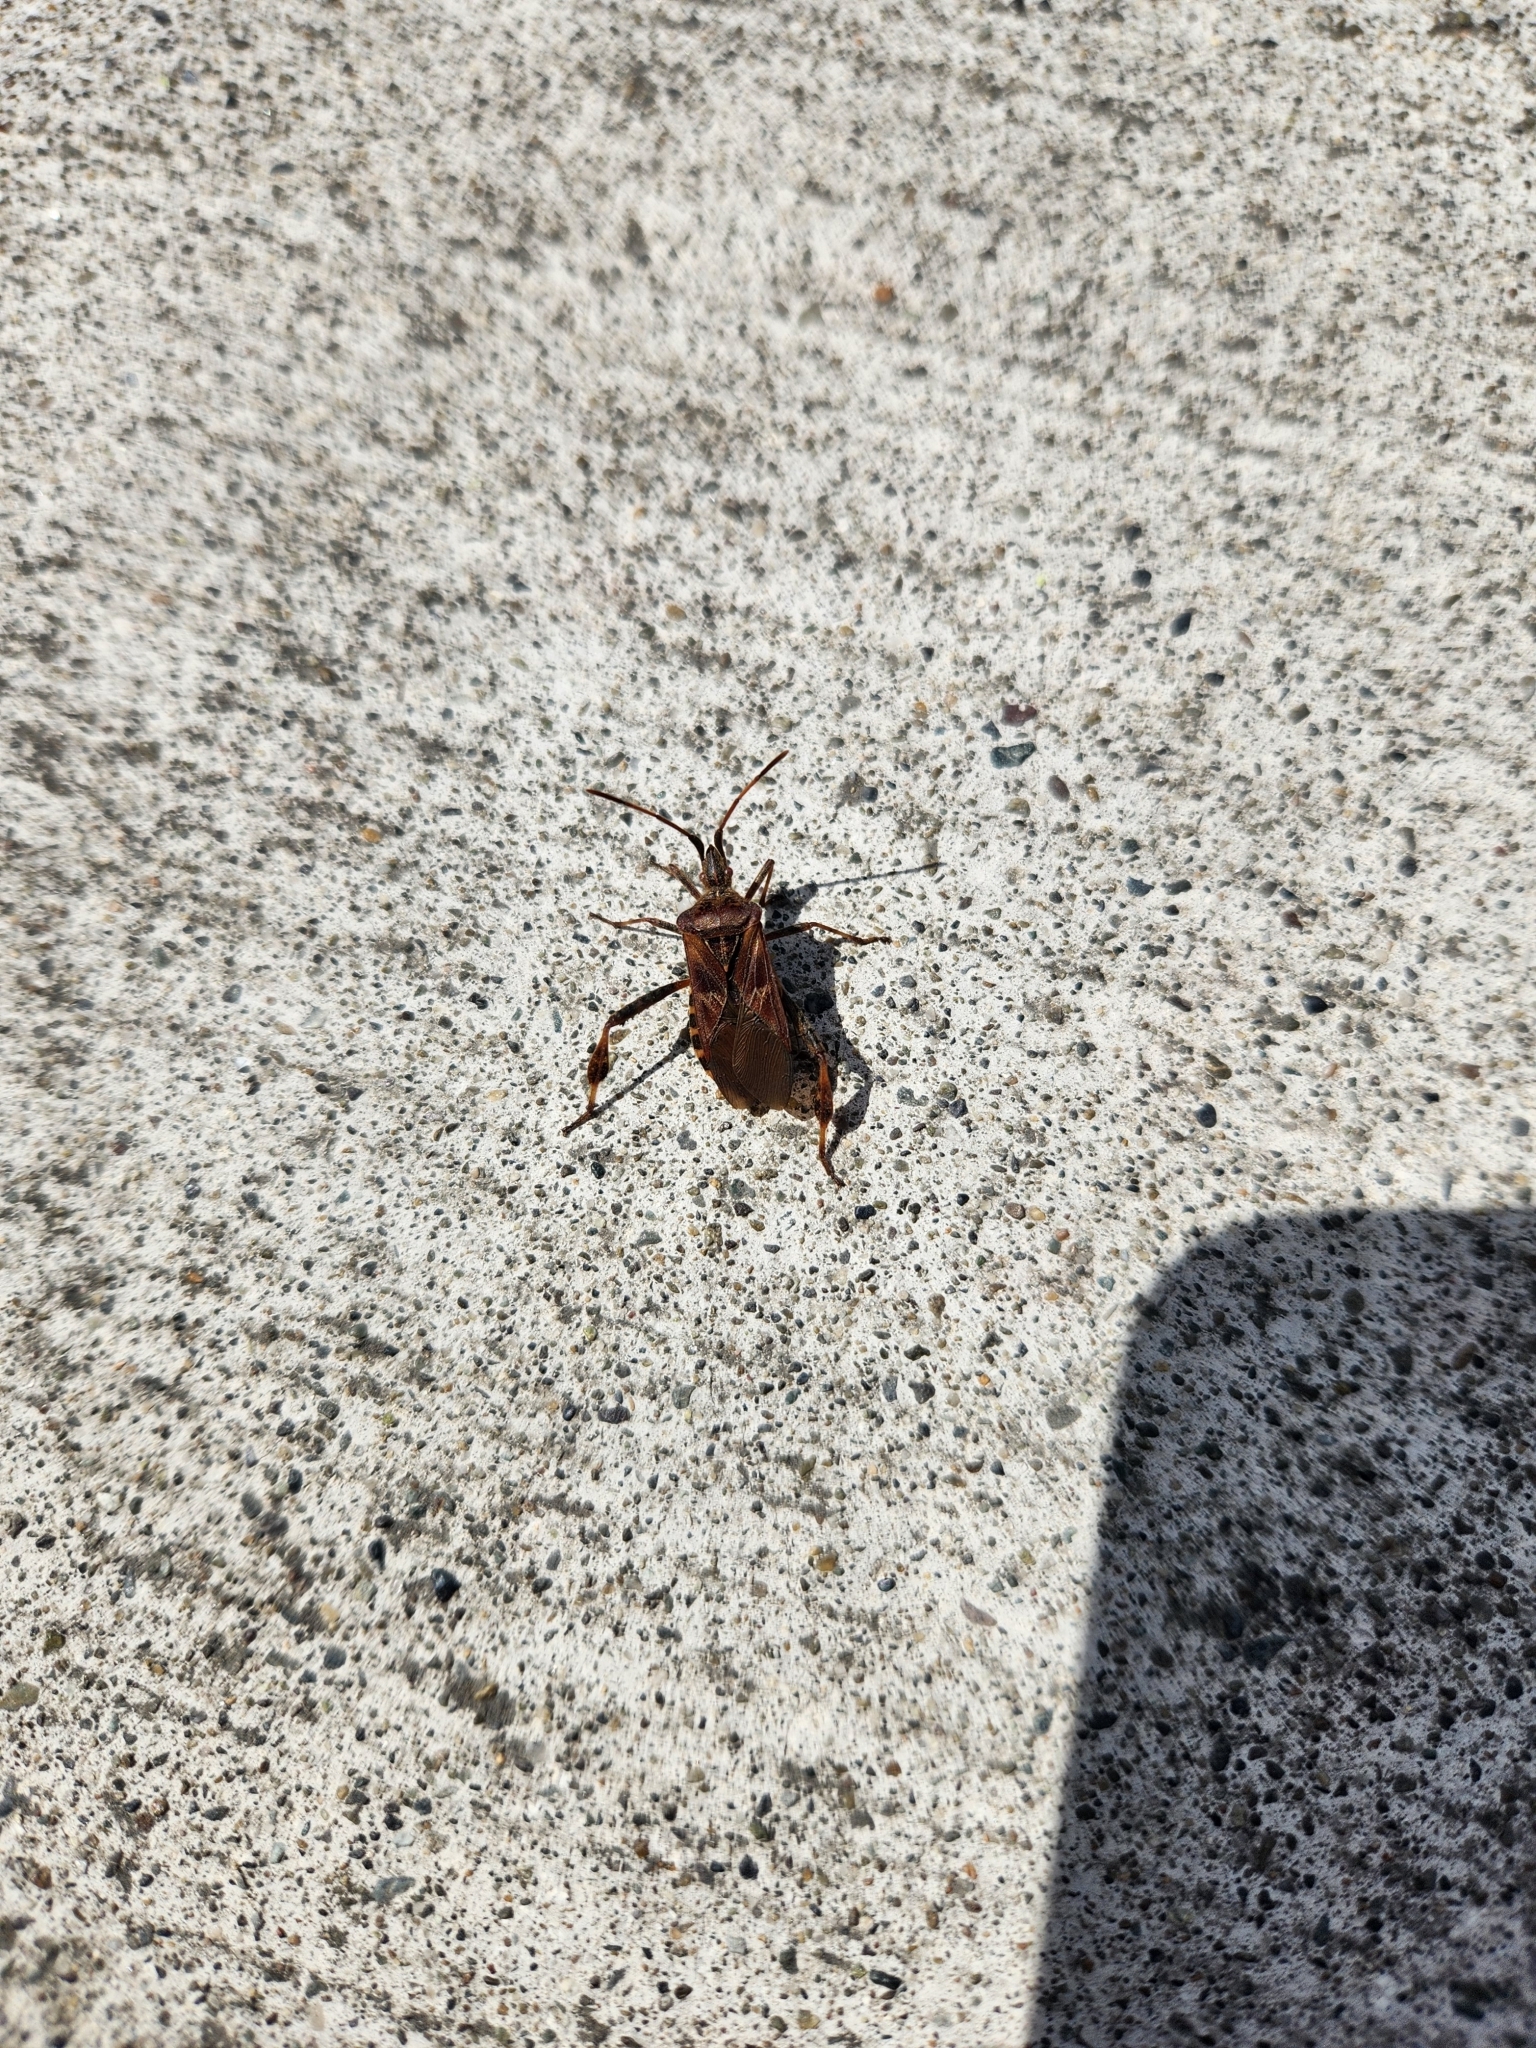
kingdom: Animalia
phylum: Arthropoda
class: Insecta
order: Hemiptera
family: Coreidae
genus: Leptoglossus
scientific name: Leptoglossus occidentalis
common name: Western conifer-seed bug
